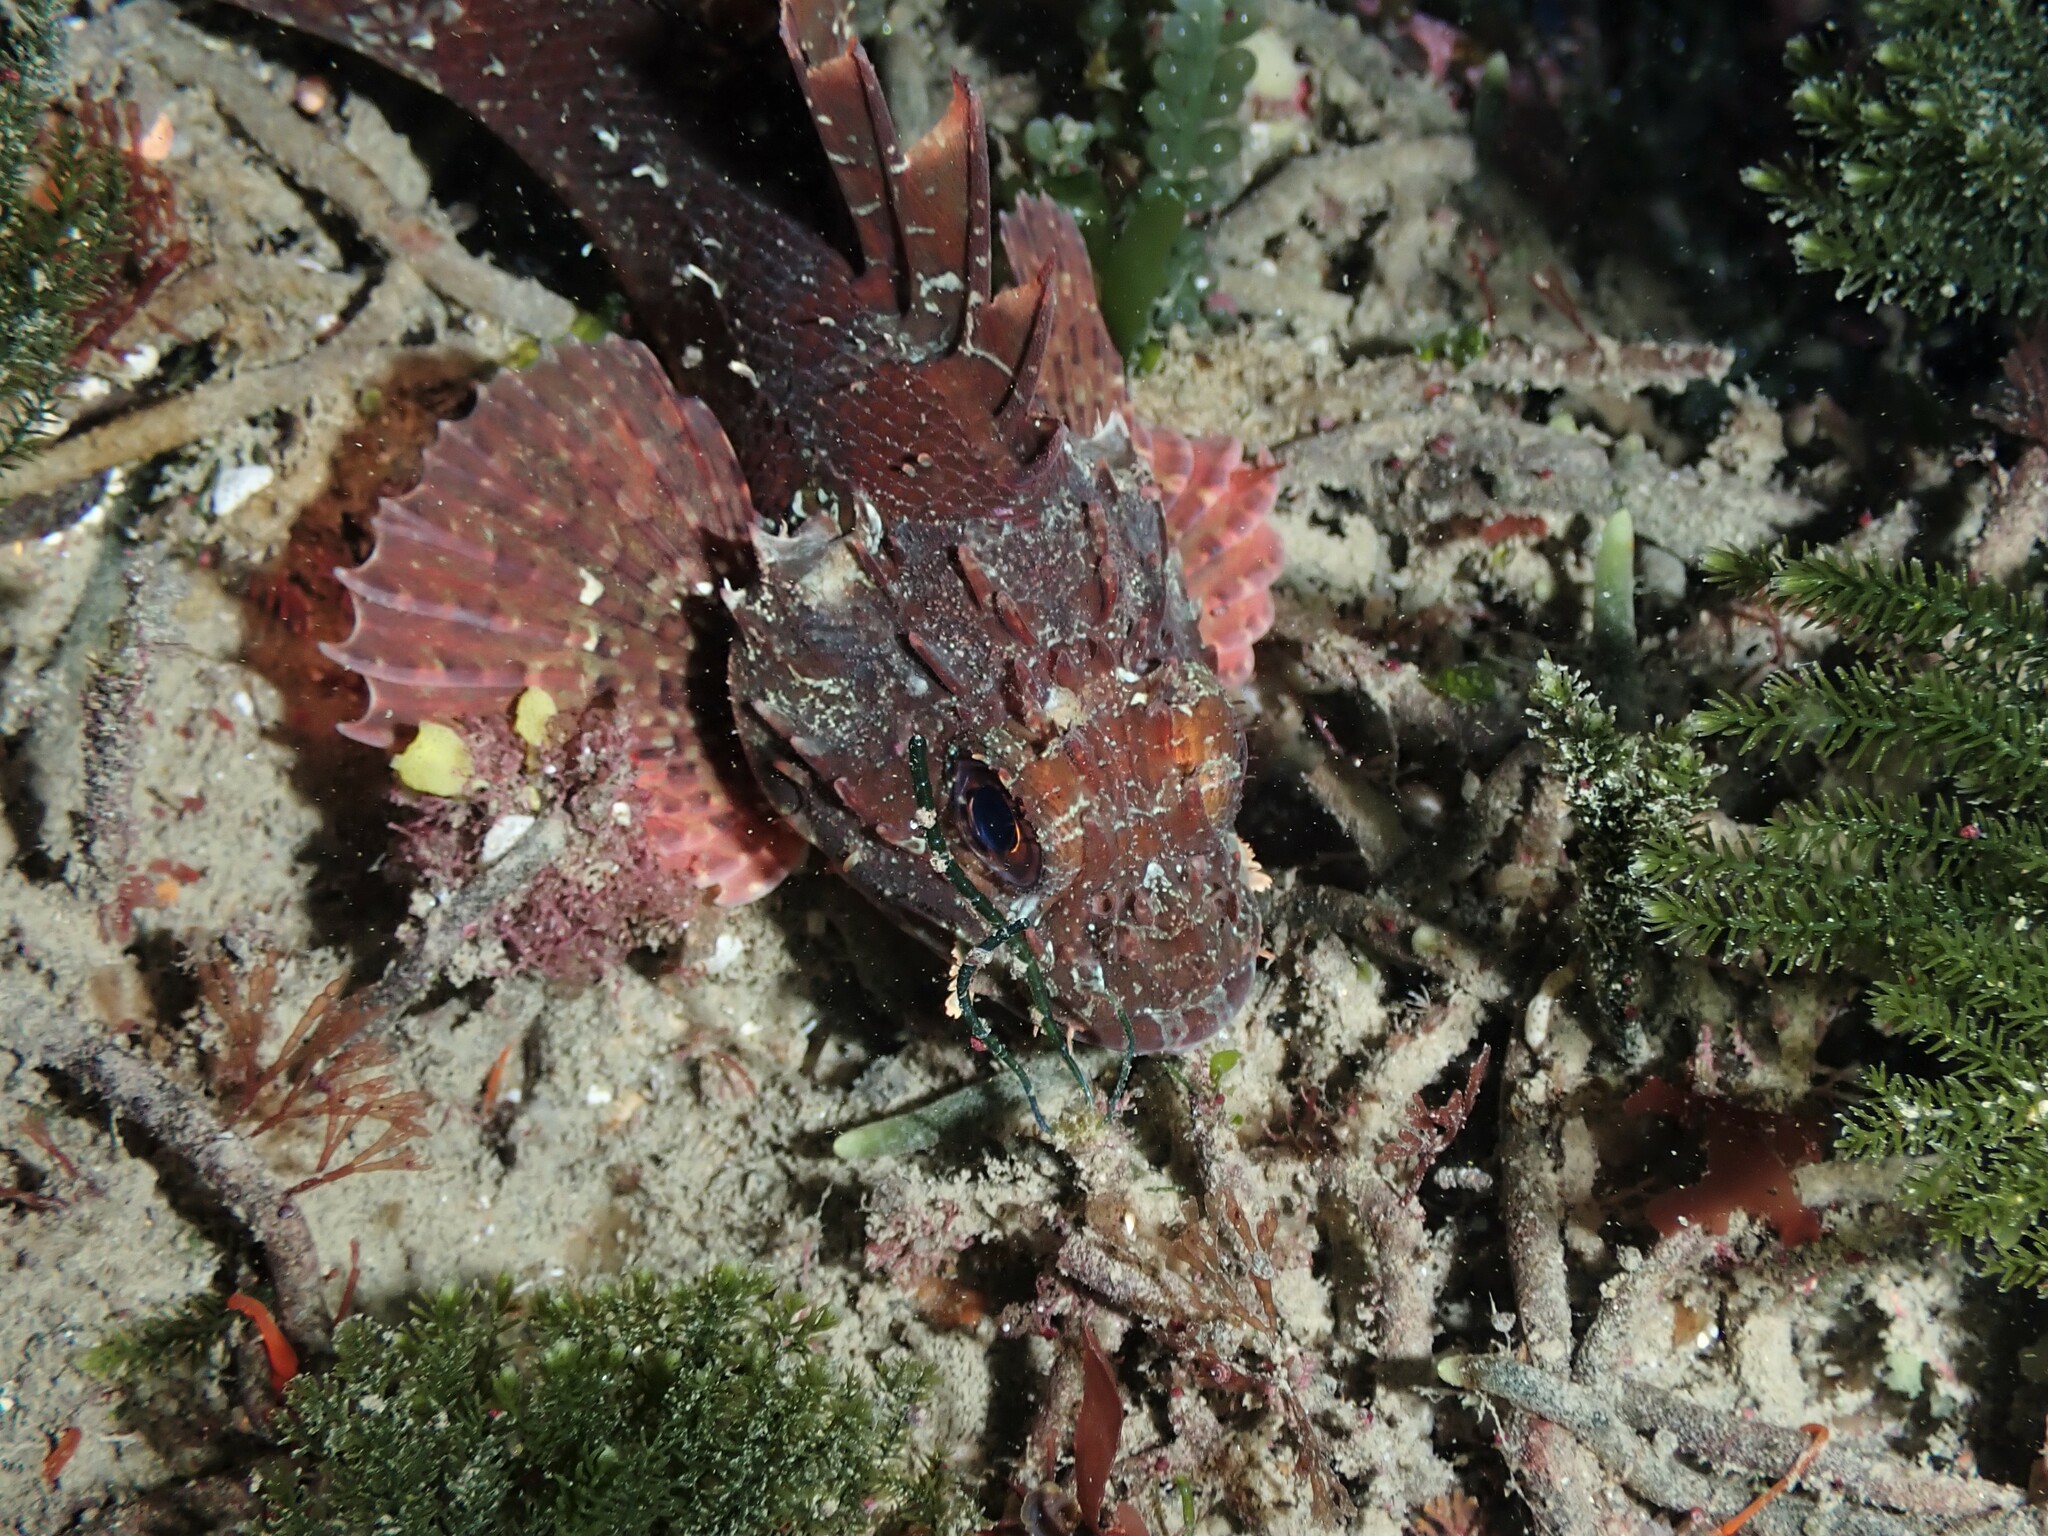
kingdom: Animalia
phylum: Chordata
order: Scorpaeniformes
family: Scorpaenidae
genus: Scorpaena
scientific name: Scorpaena papillosa
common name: Chained scorpionfish
